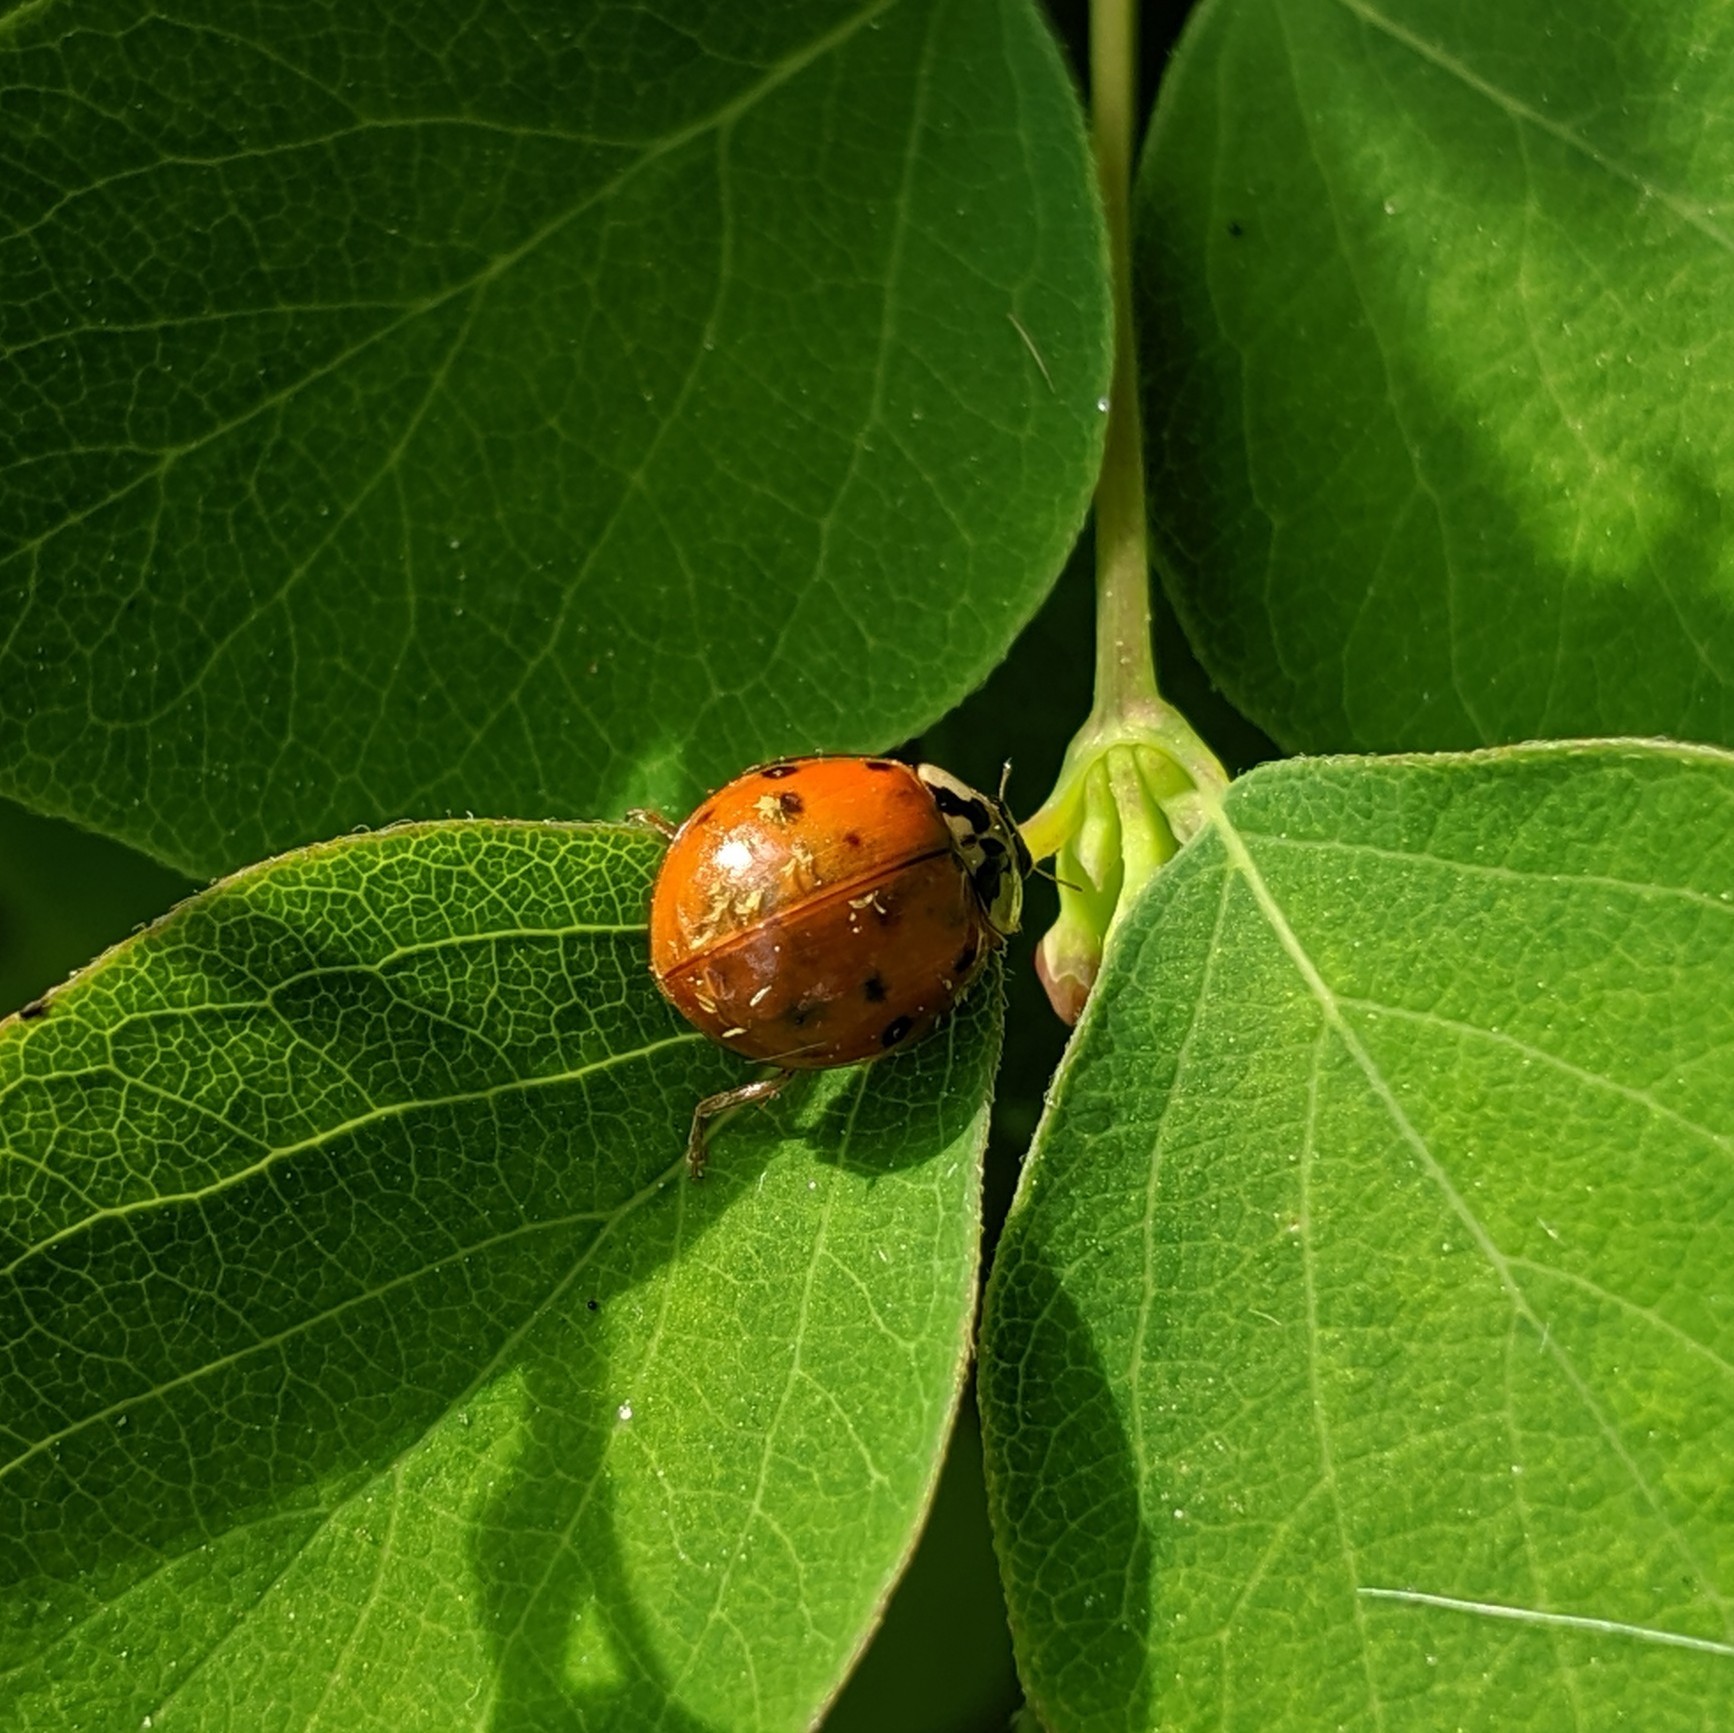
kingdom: Animalia
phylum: Arthropoda
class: Insecta
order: Coleoptera
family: Coccinellidae
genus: Harmonia
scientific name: Harmonia axyridis
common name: Harlequin ladybird
